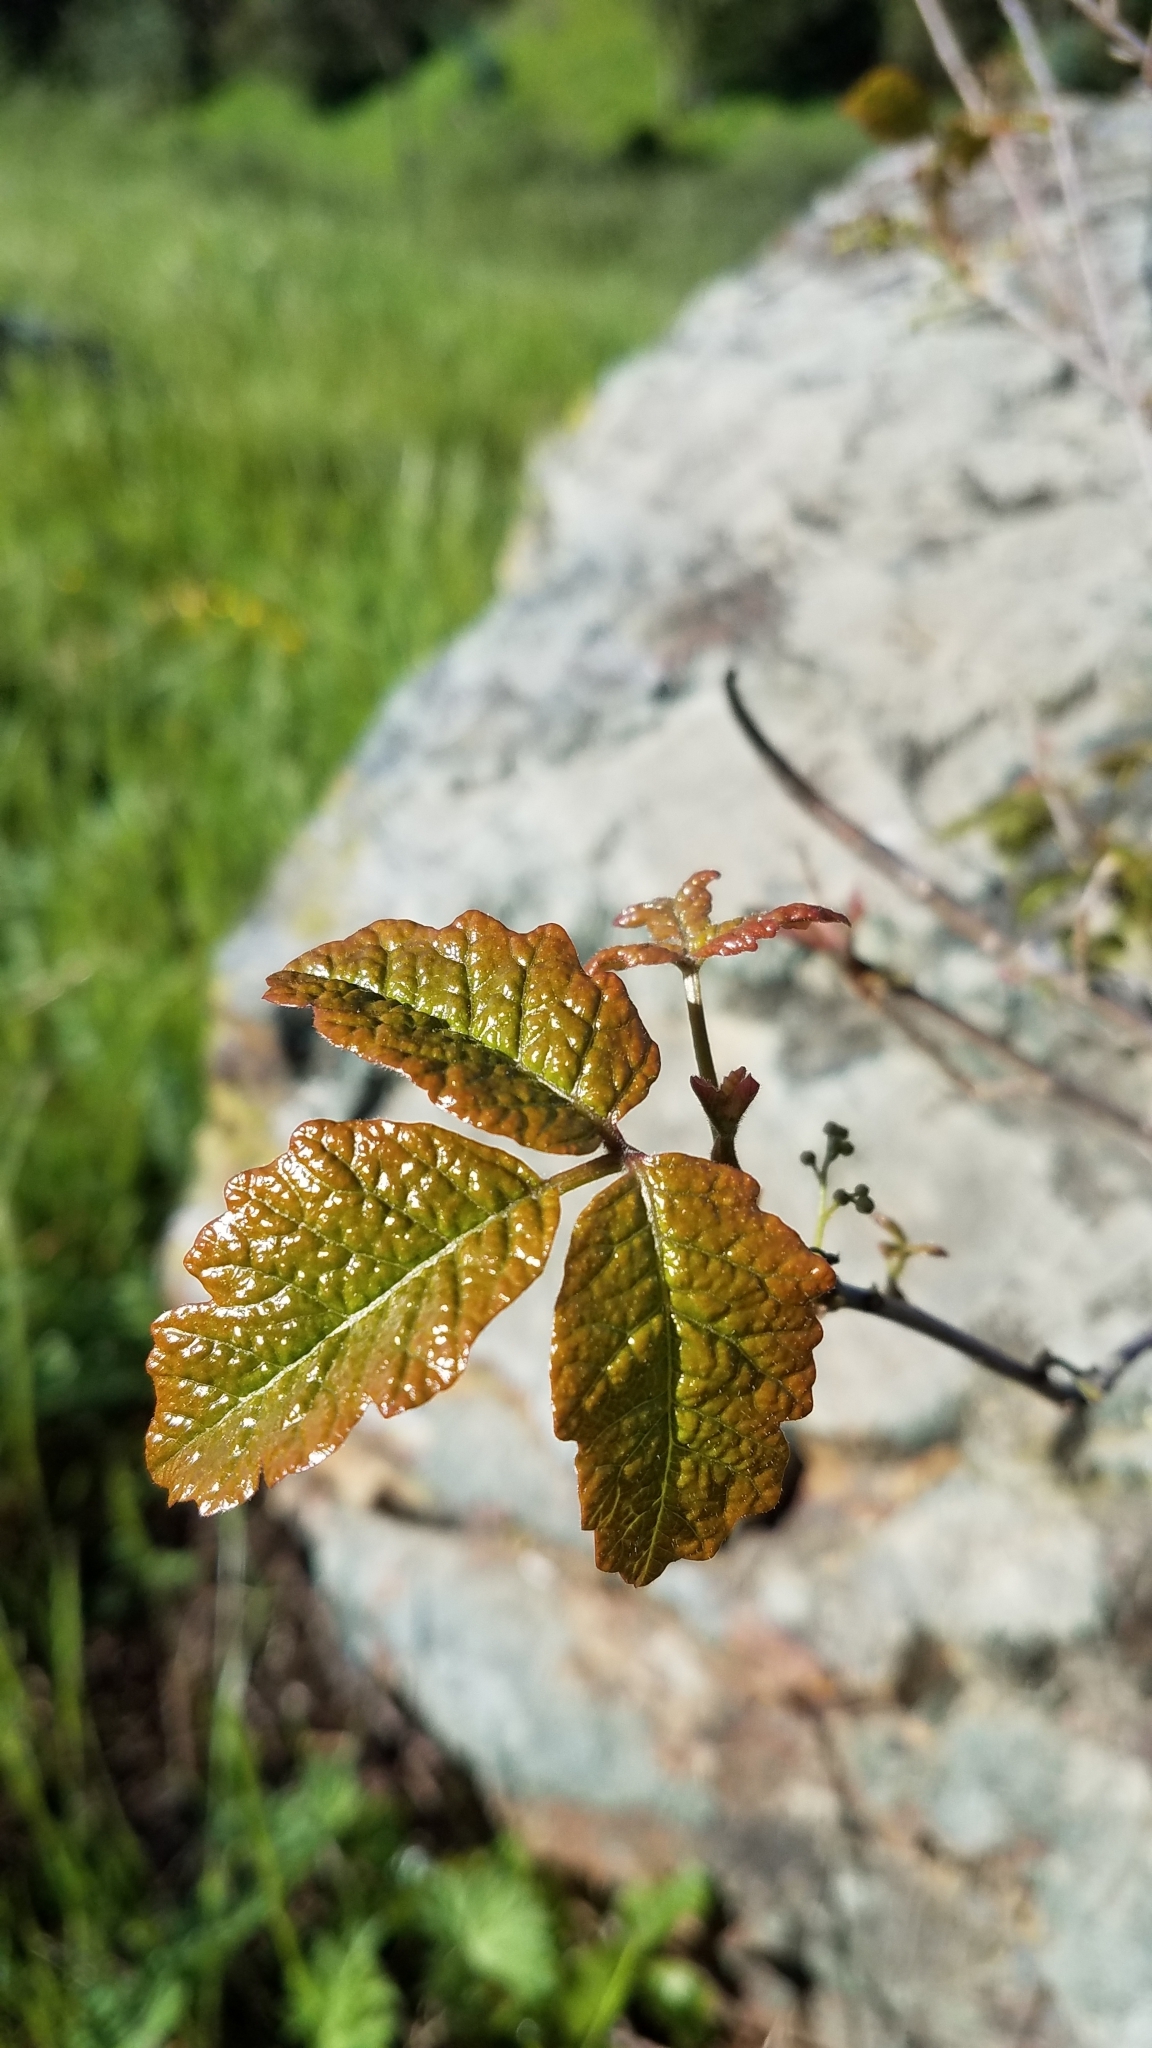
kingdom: Plantae
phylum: Tracheophyta
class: Magnoliopsida
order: Sapindales
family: Anacardiaceae
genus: Toxicodendron
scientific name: Toxicodendron diversilobum
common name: Pacific poison-oak
